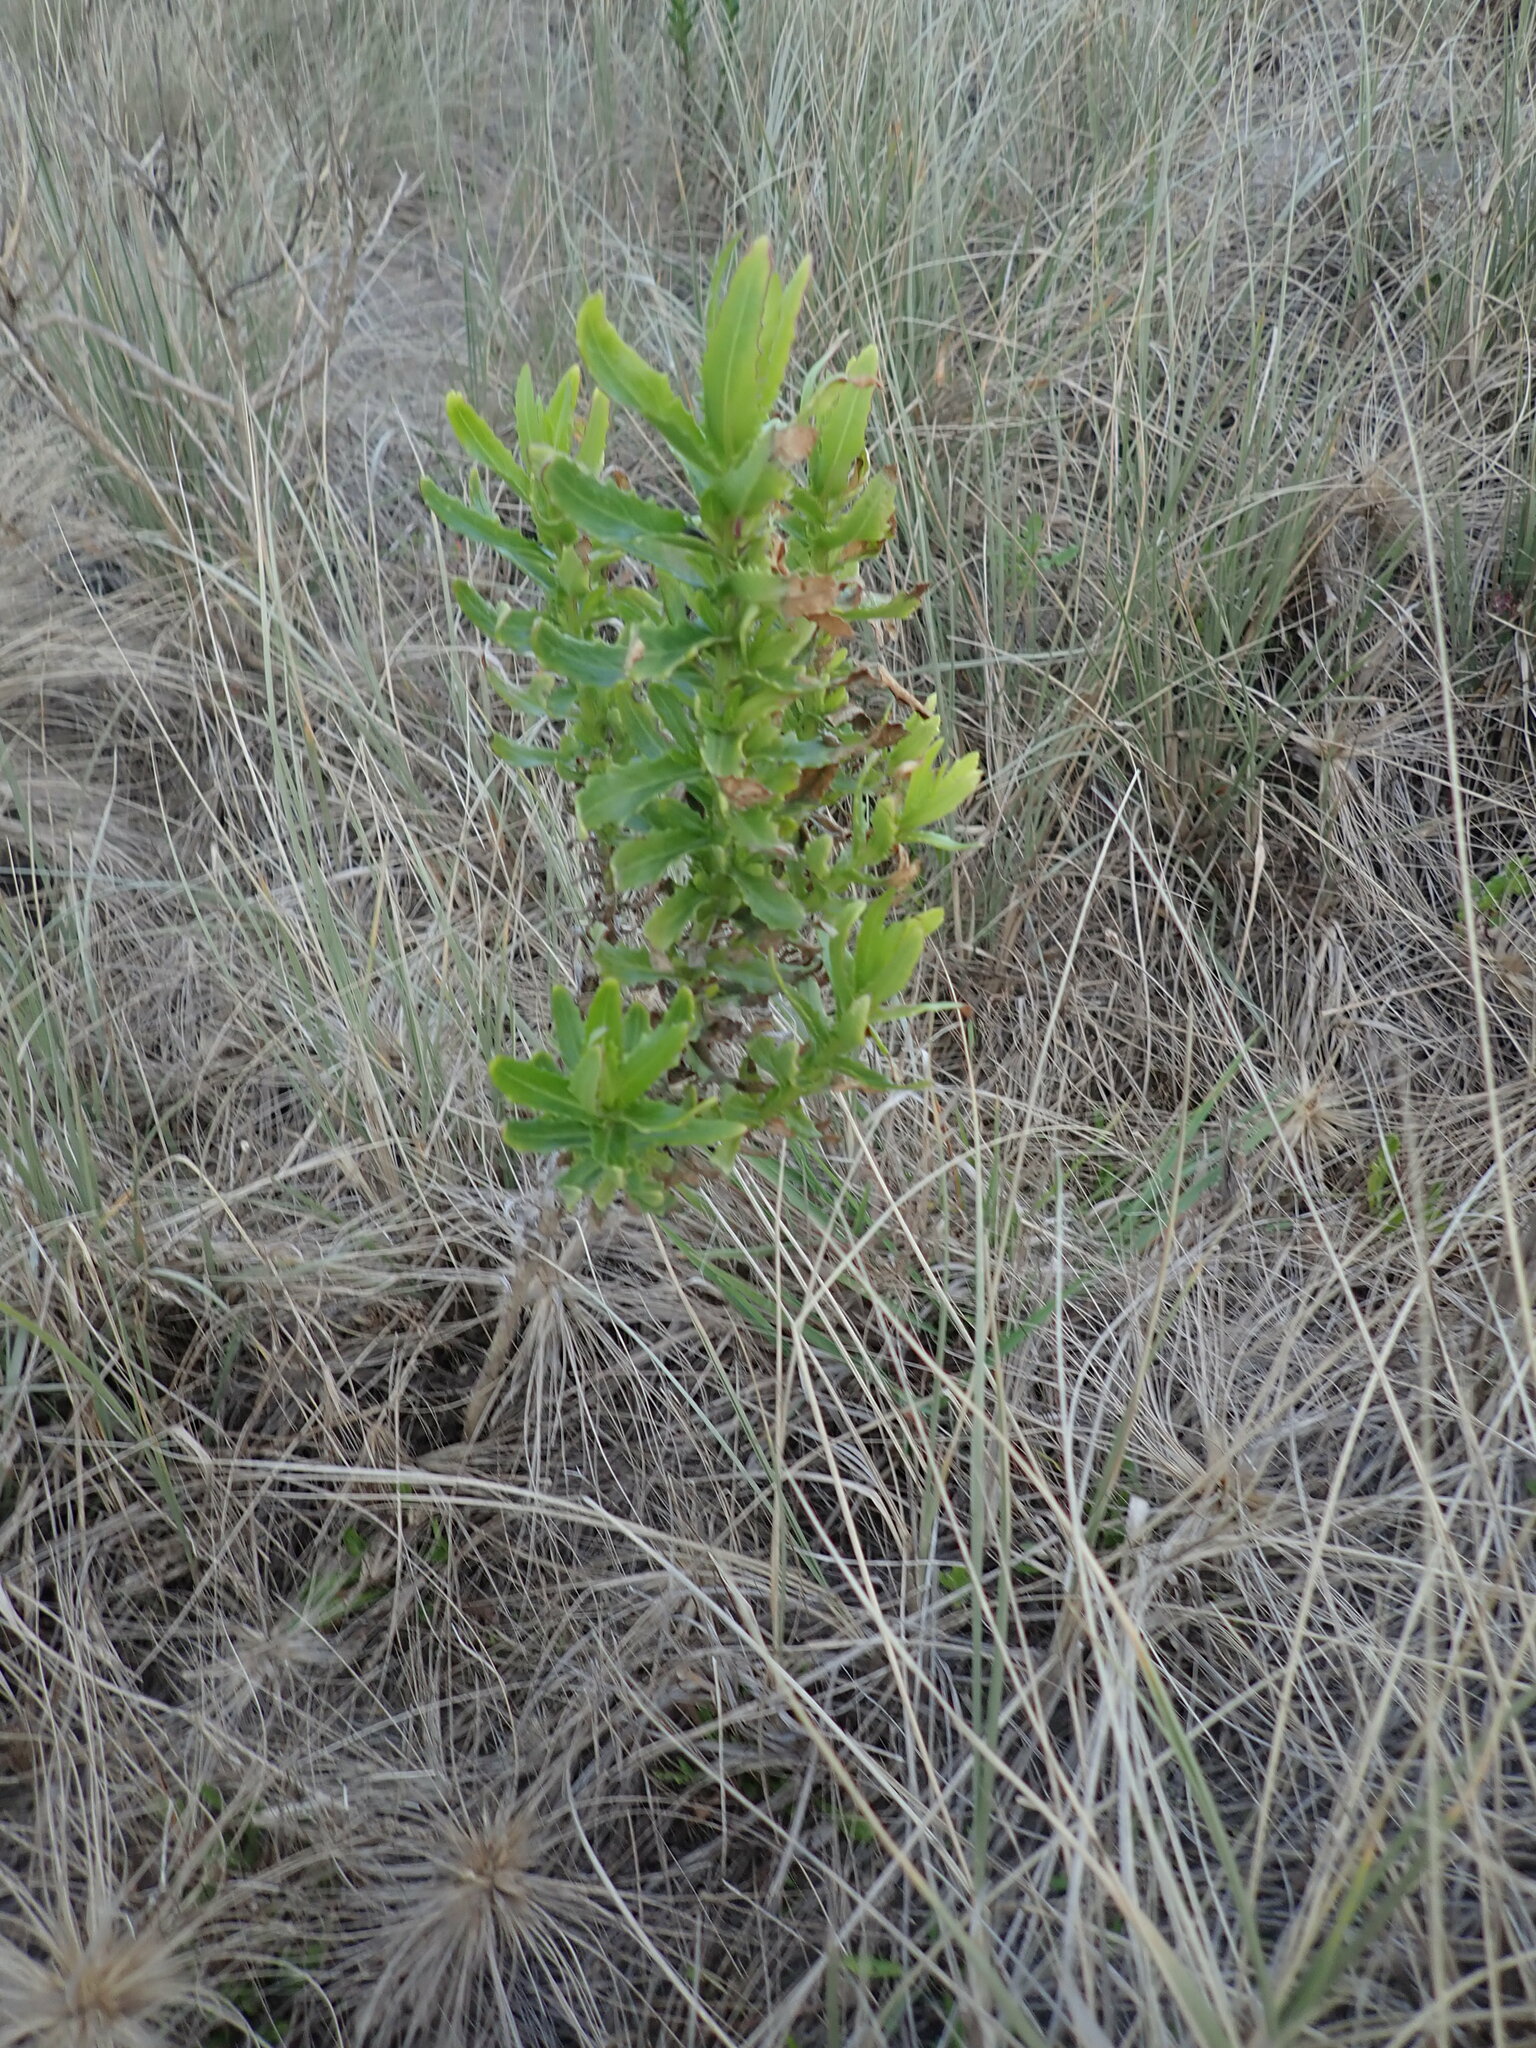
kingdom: Plantae
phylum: Tracheophyta
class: Magnoliopsida
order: Asterales
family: Asteraceae
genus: Senecio
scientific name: Senecio glastifolius
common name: Woad-leaved ragwort
